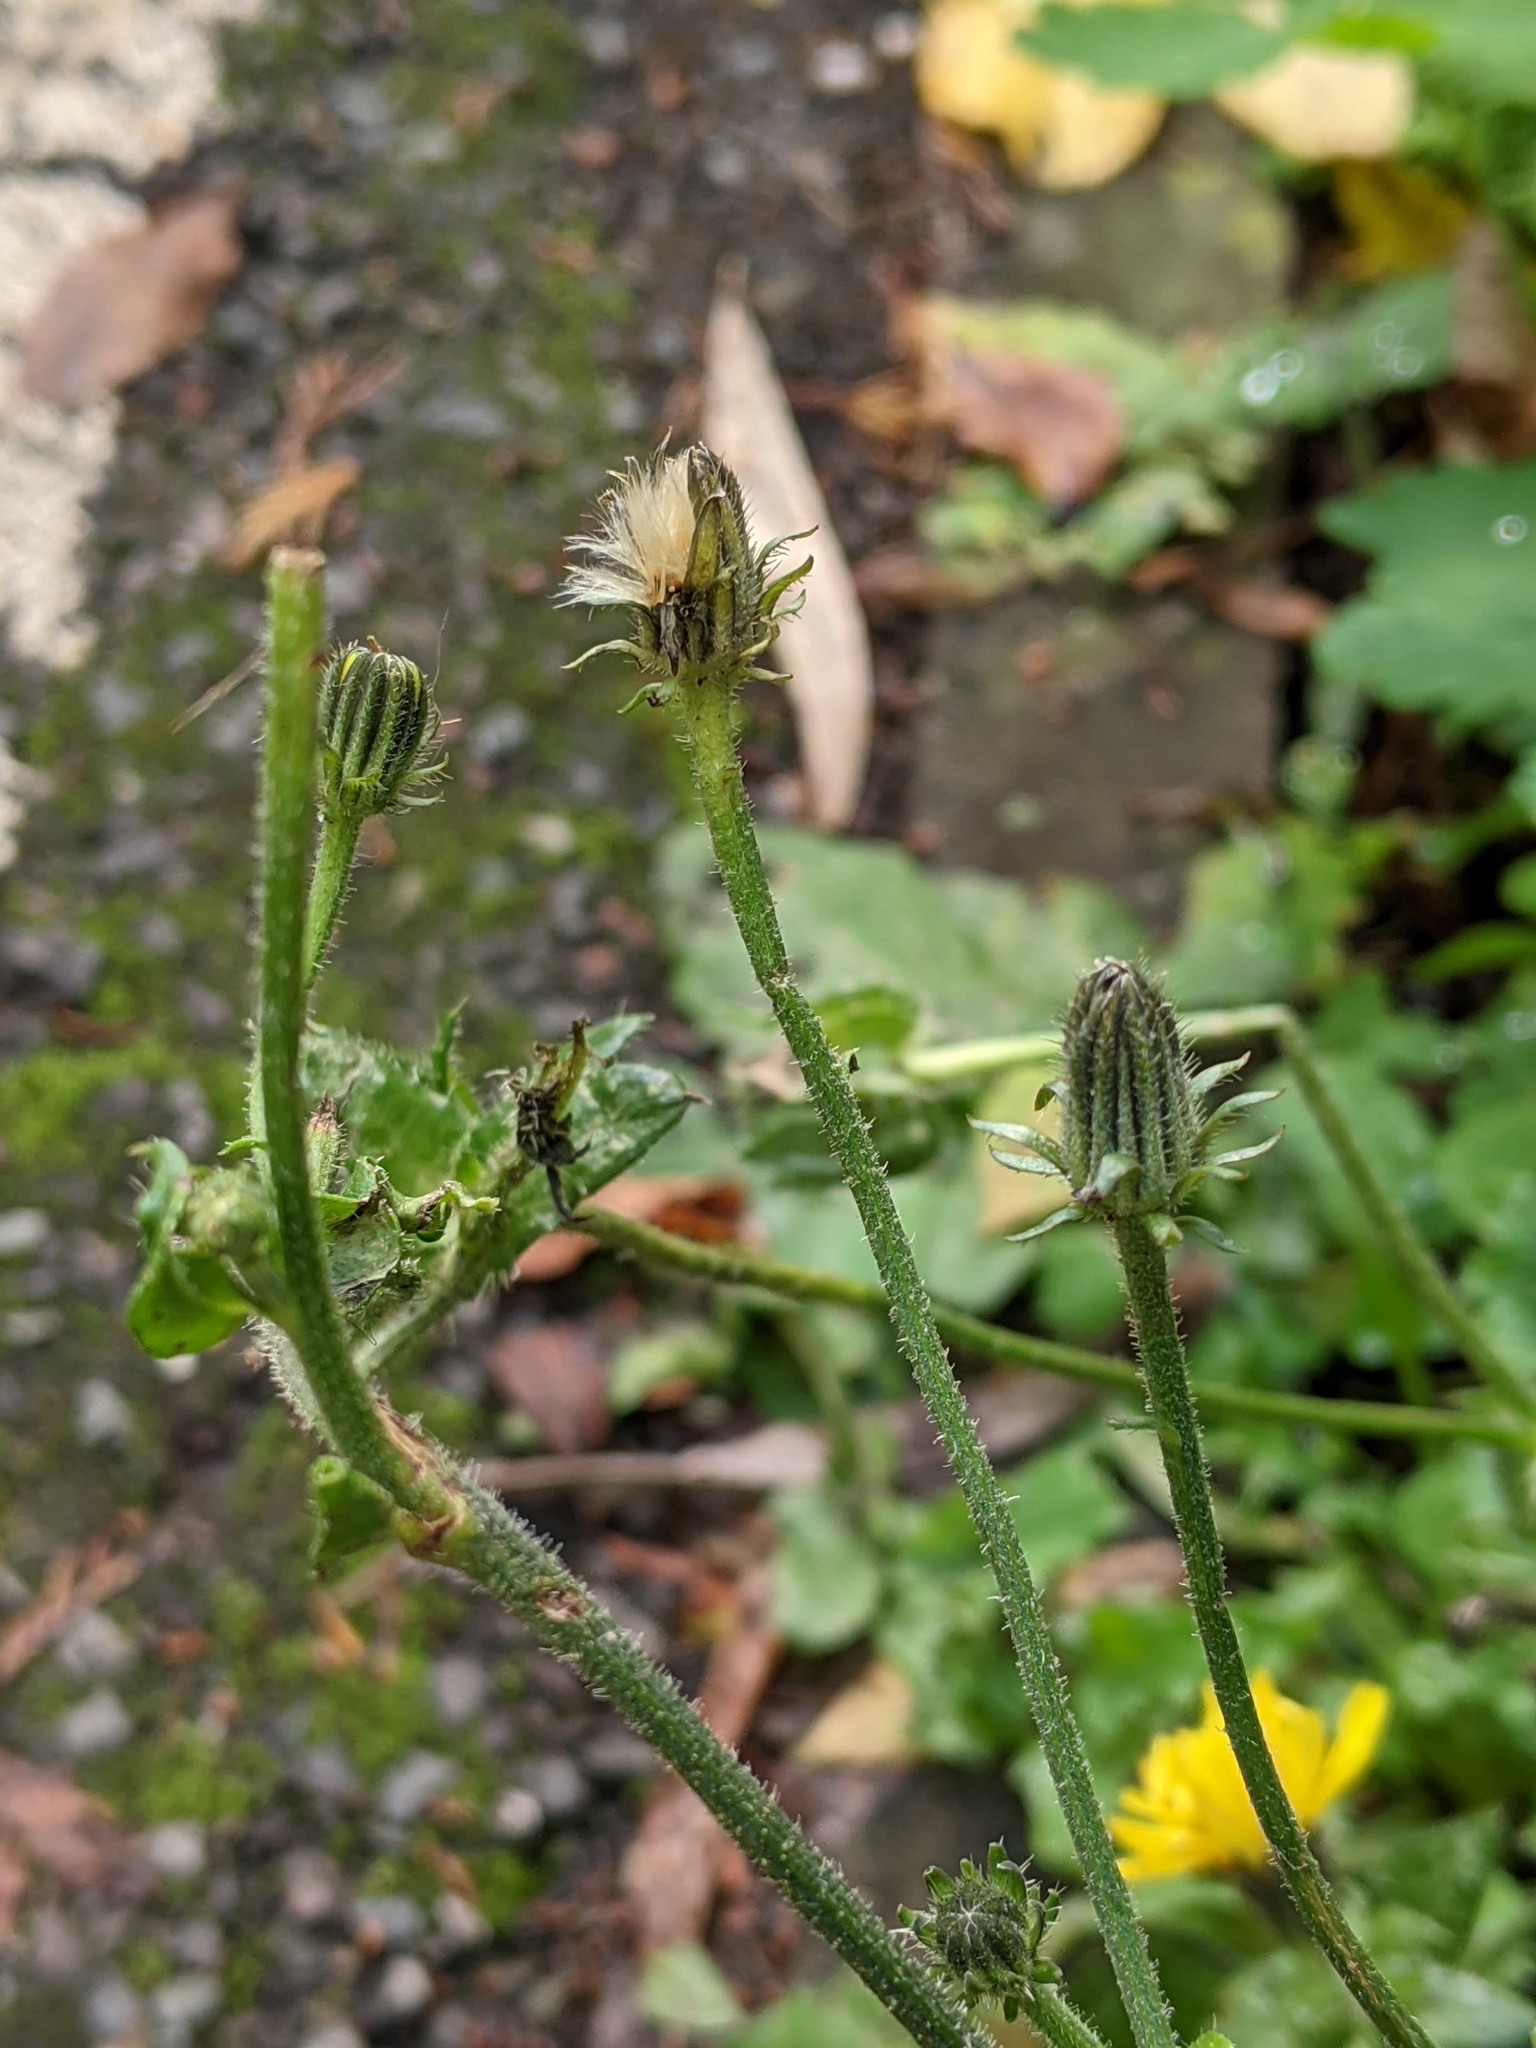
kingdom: Plantae
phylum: Tracheophyta
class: Magnoliopsida
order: Asterales
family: Asteraceae
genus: Picris
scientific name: Picris hieracioides
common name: Hawkweed oxtongue
